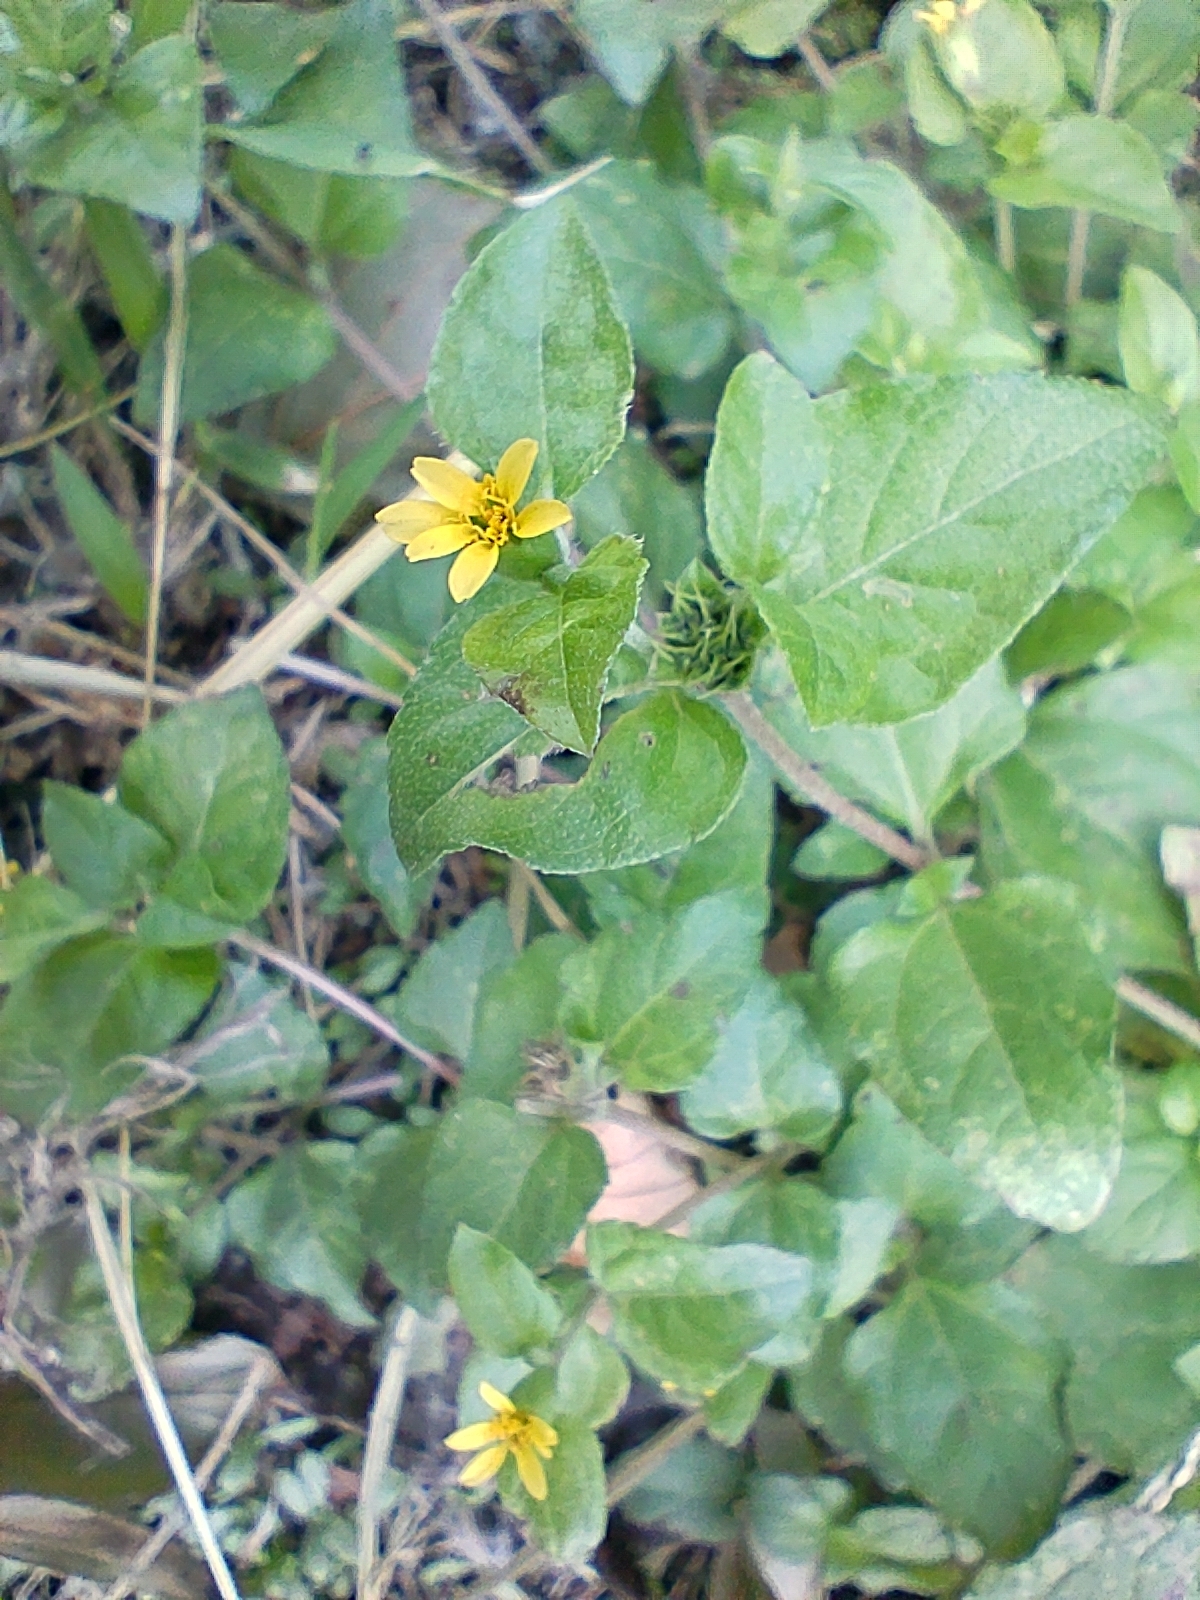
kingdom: Plantae
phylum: Tracheophyta
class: Magnoliopsida
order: Asterales
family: Asteraceae
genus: Calyptocarpus
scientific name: Calyptocarpus vialis
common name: Straggler daisy
